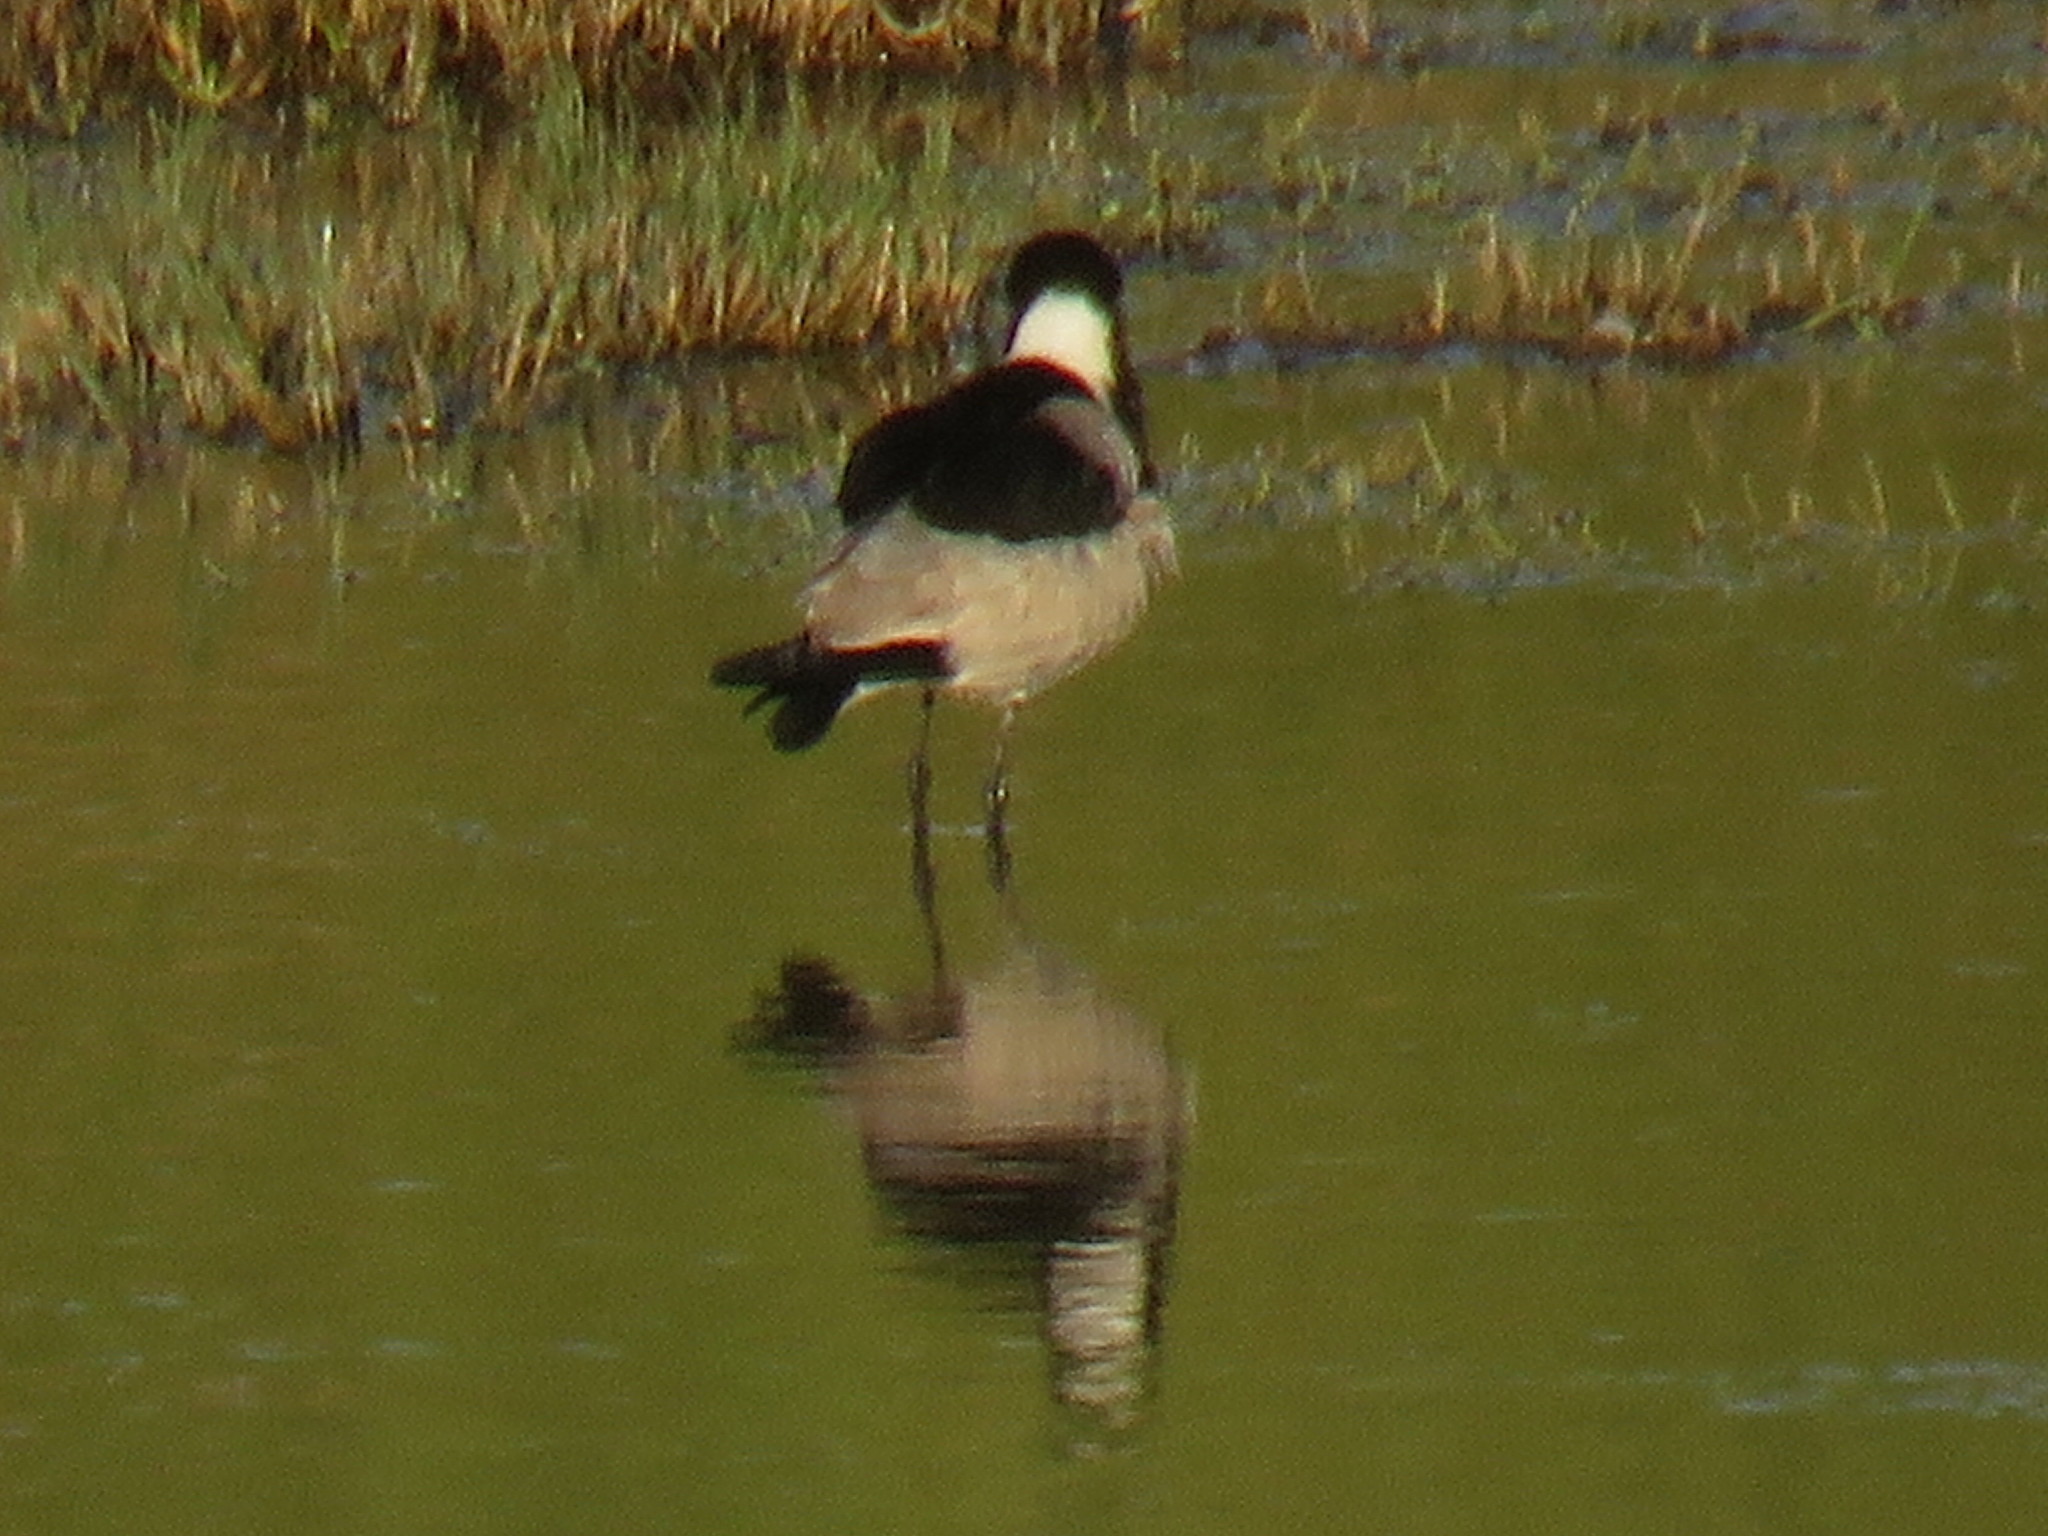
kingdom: Animalia
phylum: Chordata
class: Aves
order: Charadriiformes
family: Charadriidae
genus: Vanellus
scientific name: Vanellus armatus
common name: Blacksmith lapwing
